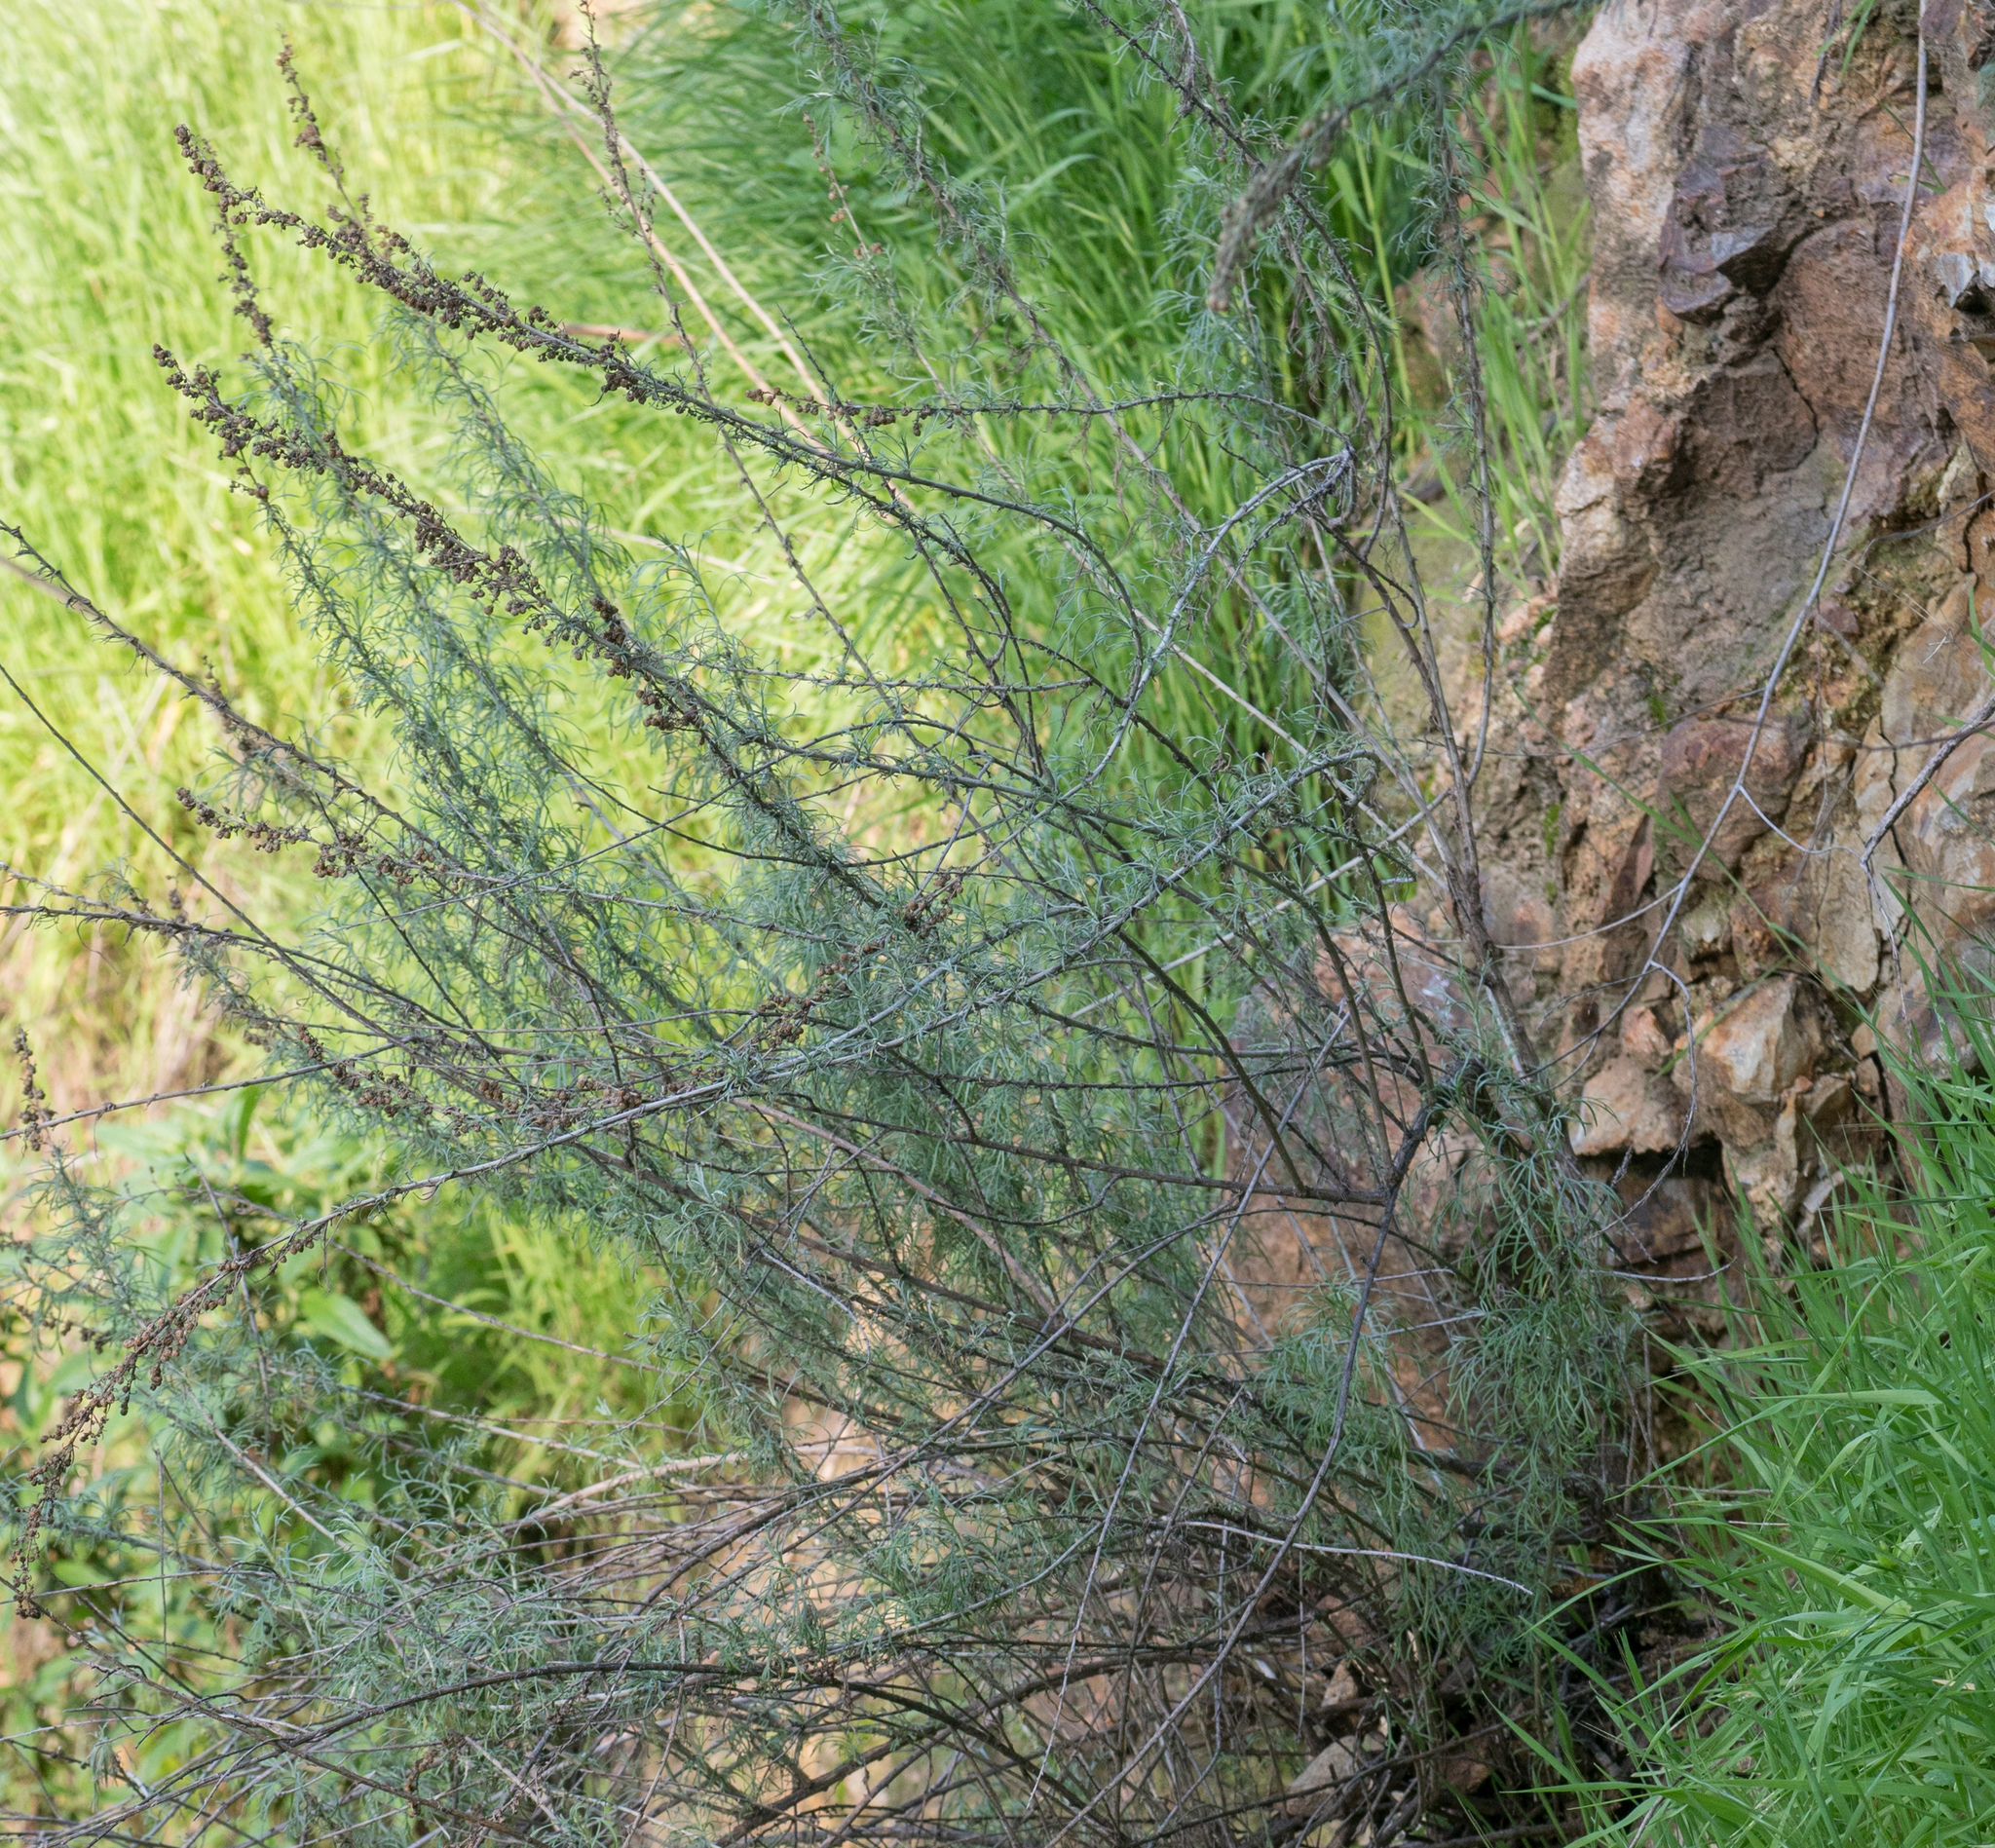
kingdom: Plantae
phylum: Tracheophyta
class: Magnoliopsida
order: Asterales
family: Asteraceae
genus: Artemisia
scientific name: Artemisia californica
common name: California sagebrush
